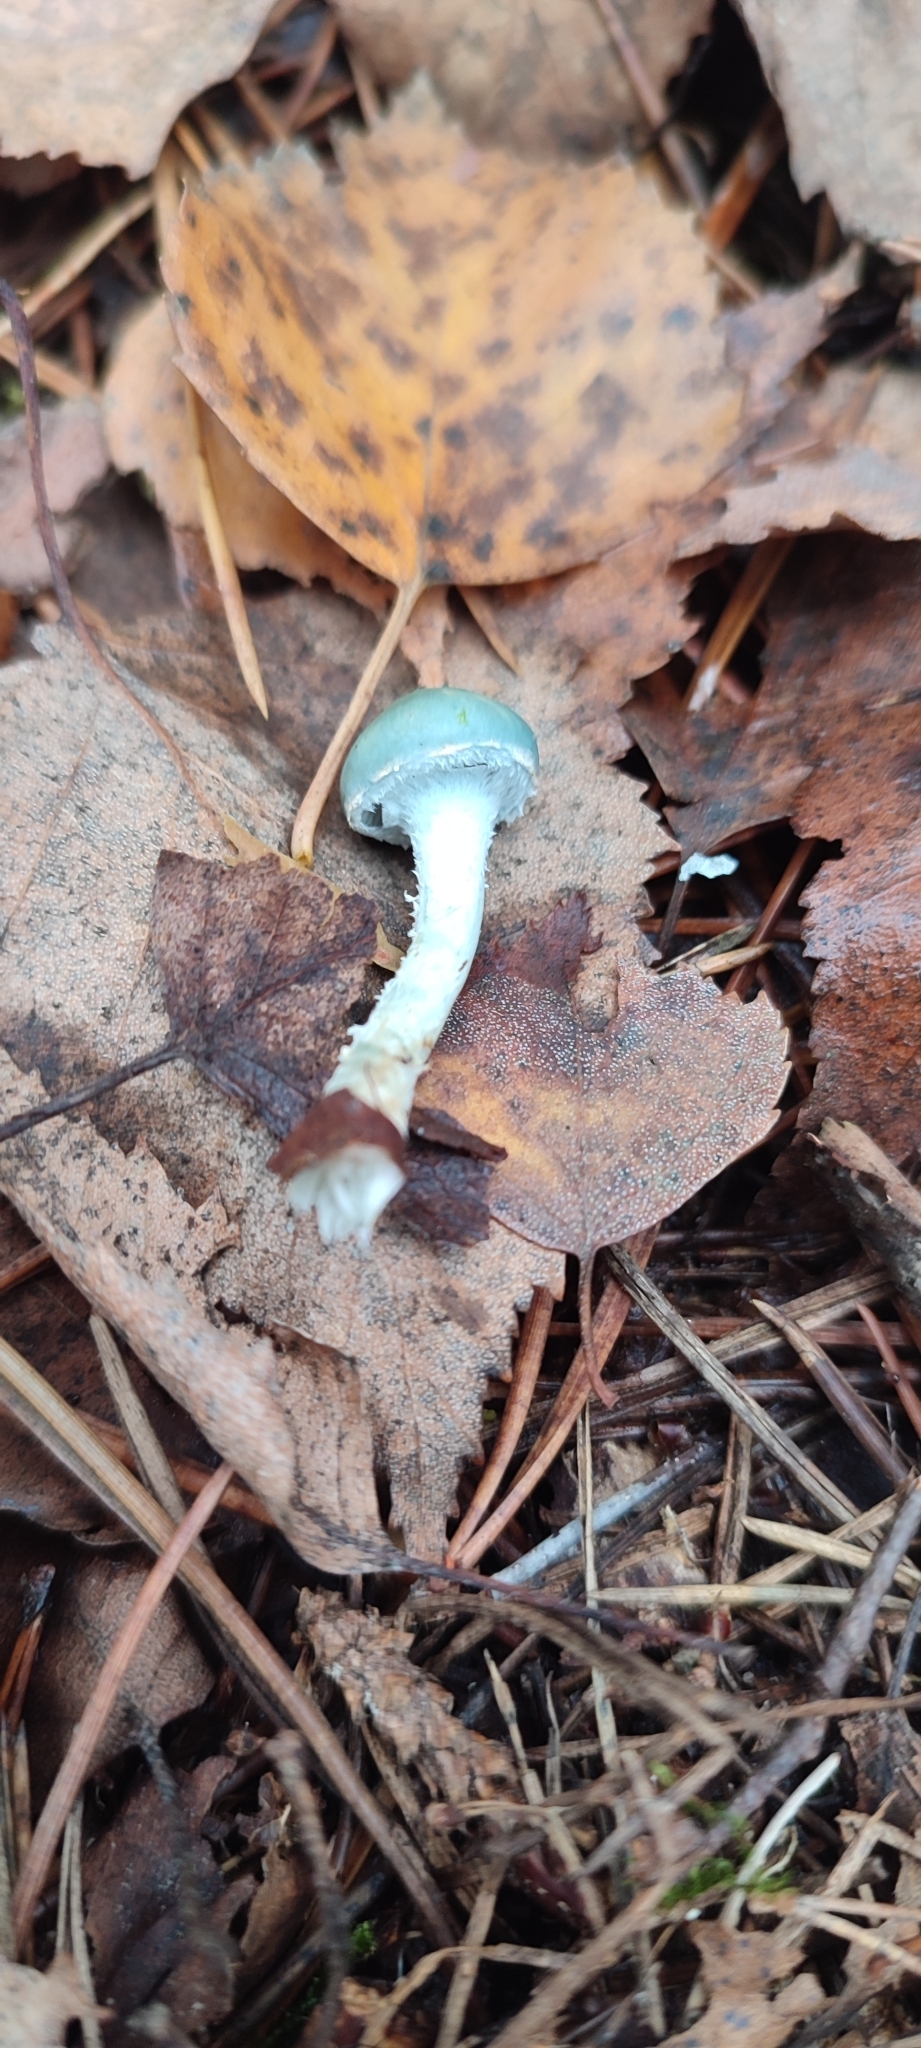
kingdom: Fungi
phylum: Basidiomycota
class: Agaricomycetes
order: Agaricales
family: Strophariaceae
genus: Stropharia
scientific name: Stropharia aeruginosa
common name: Verdigris roundhead
